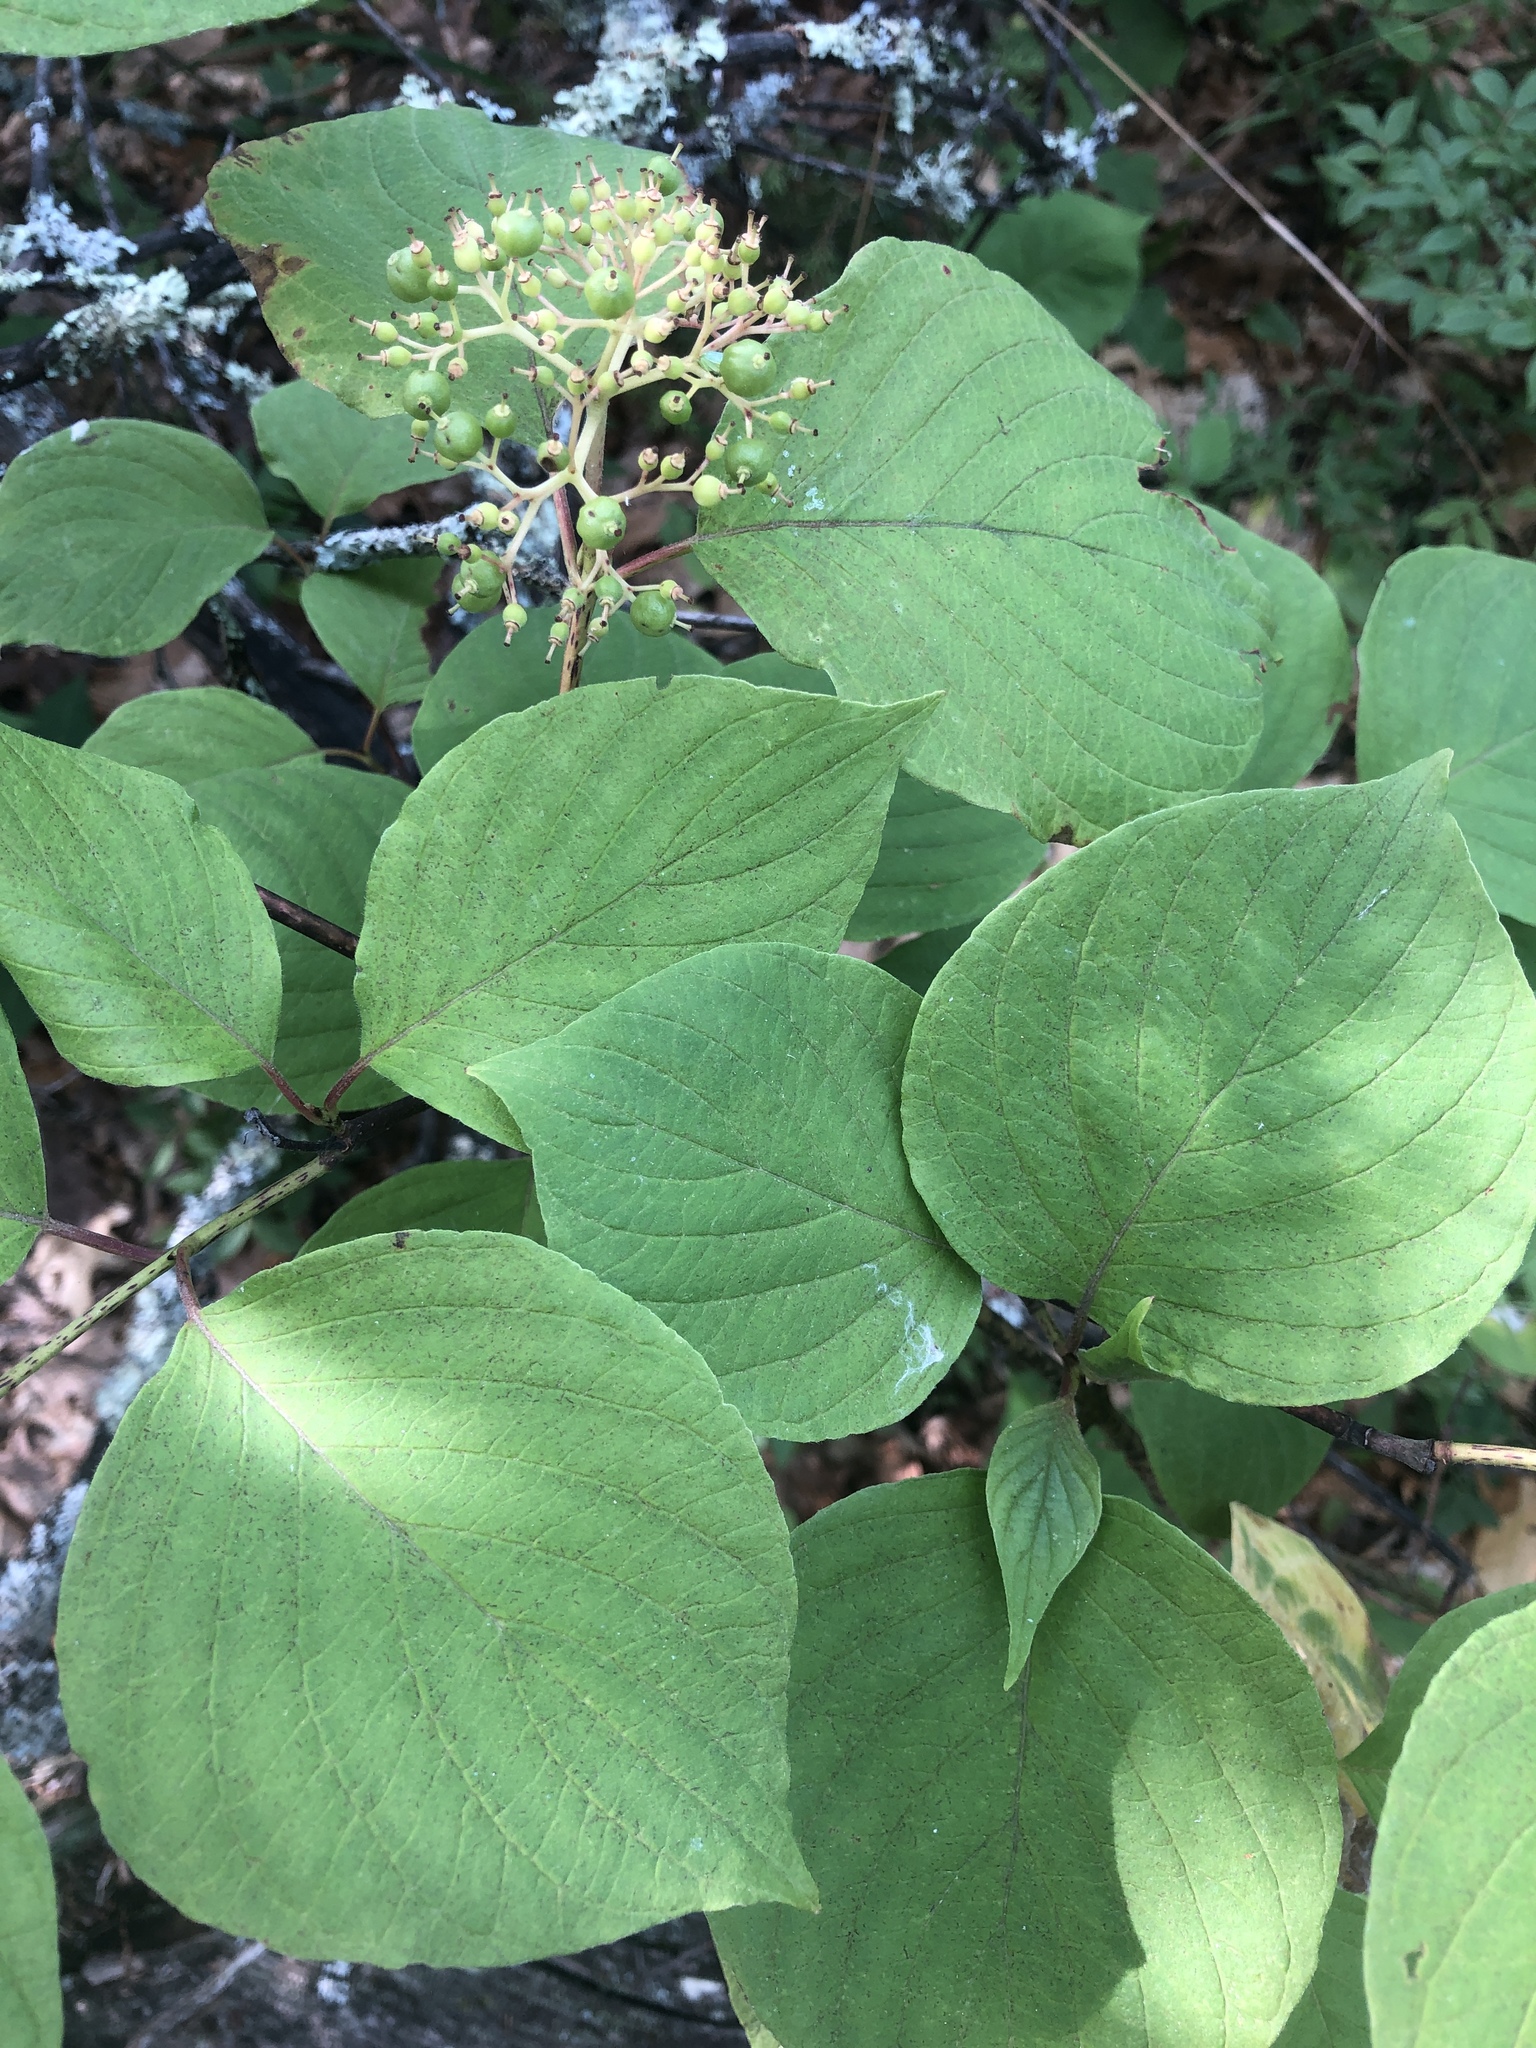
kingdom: Plantae
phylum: Tracheophyta
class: Magnoliopsida
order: Cornales
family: Cornaceae
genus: Cornus
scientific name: Cornus rugosa
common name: Round-leaf dogwood
